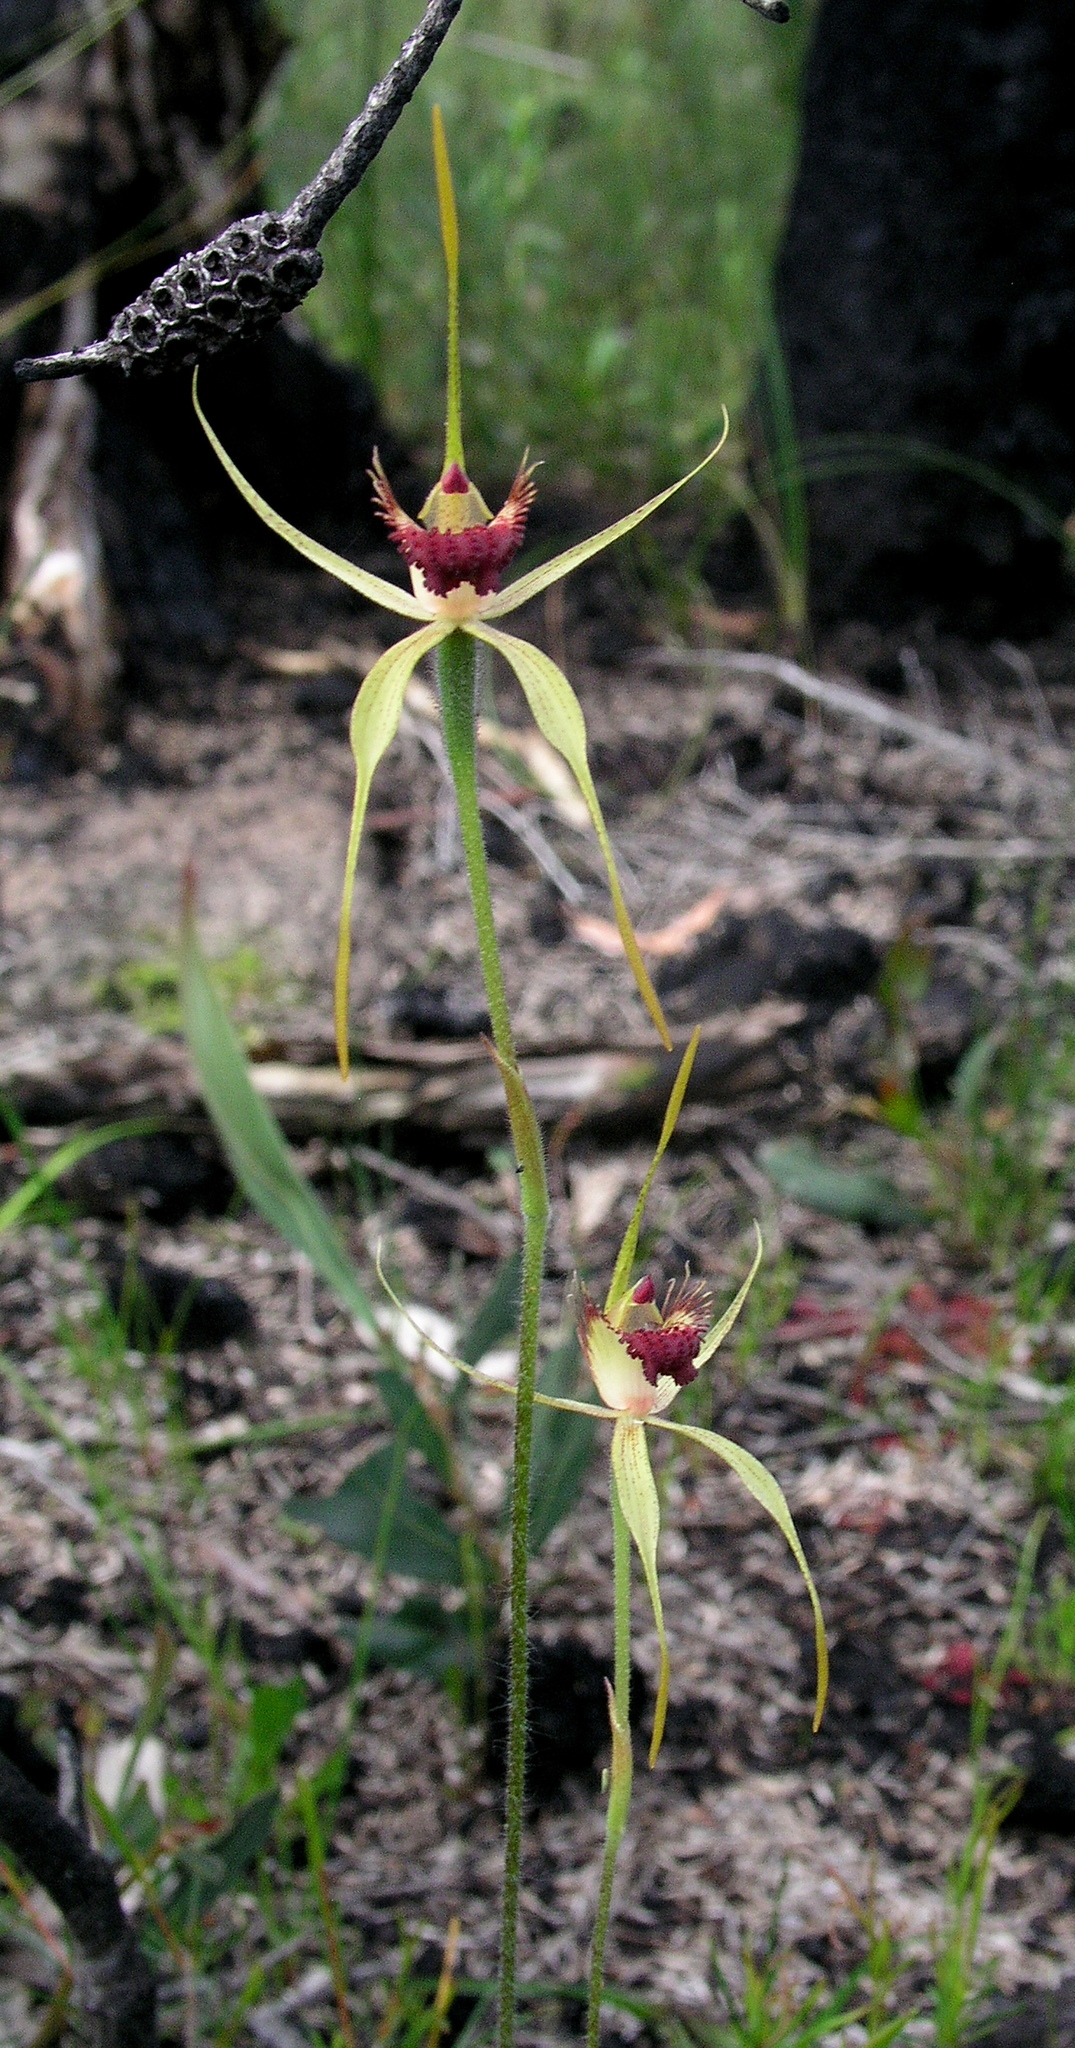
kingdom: Plantae
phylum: Tracheophyta
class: Liliopsida
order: Asparagales
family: Orchidaceae
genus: Caladenia
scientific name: Caladenia pectinata
